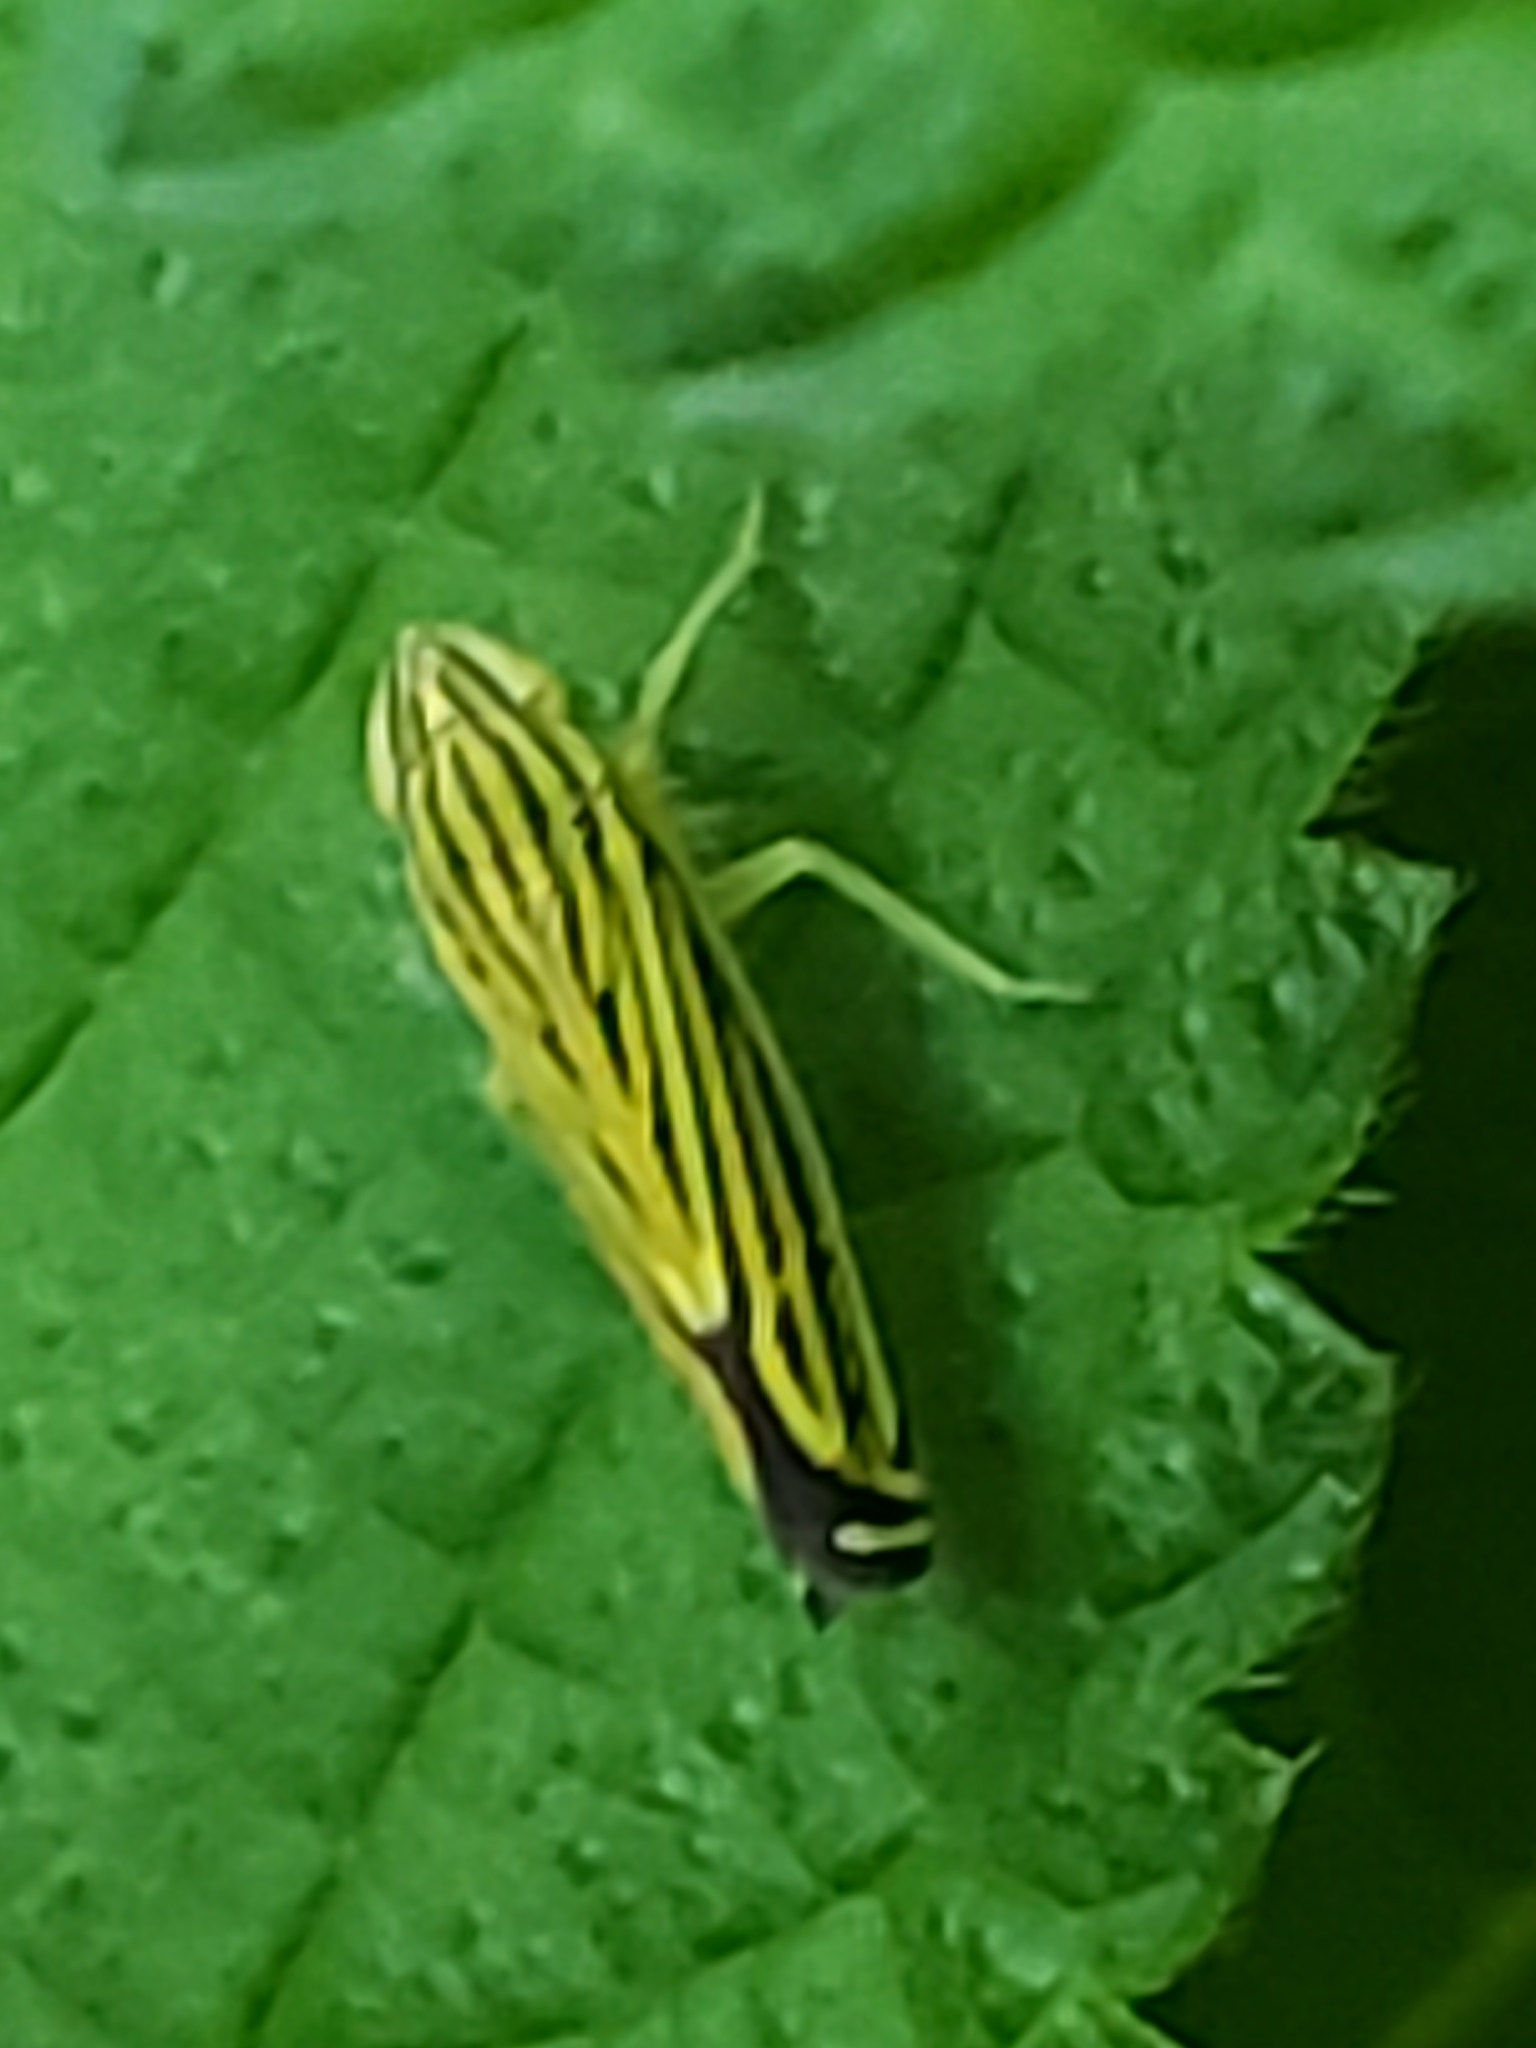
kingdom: Animalia
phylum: Arthropoda
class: Insecta
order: Hemiptera
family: Cicadellidae
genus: Sibovia
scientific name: Sibovia occatoria
